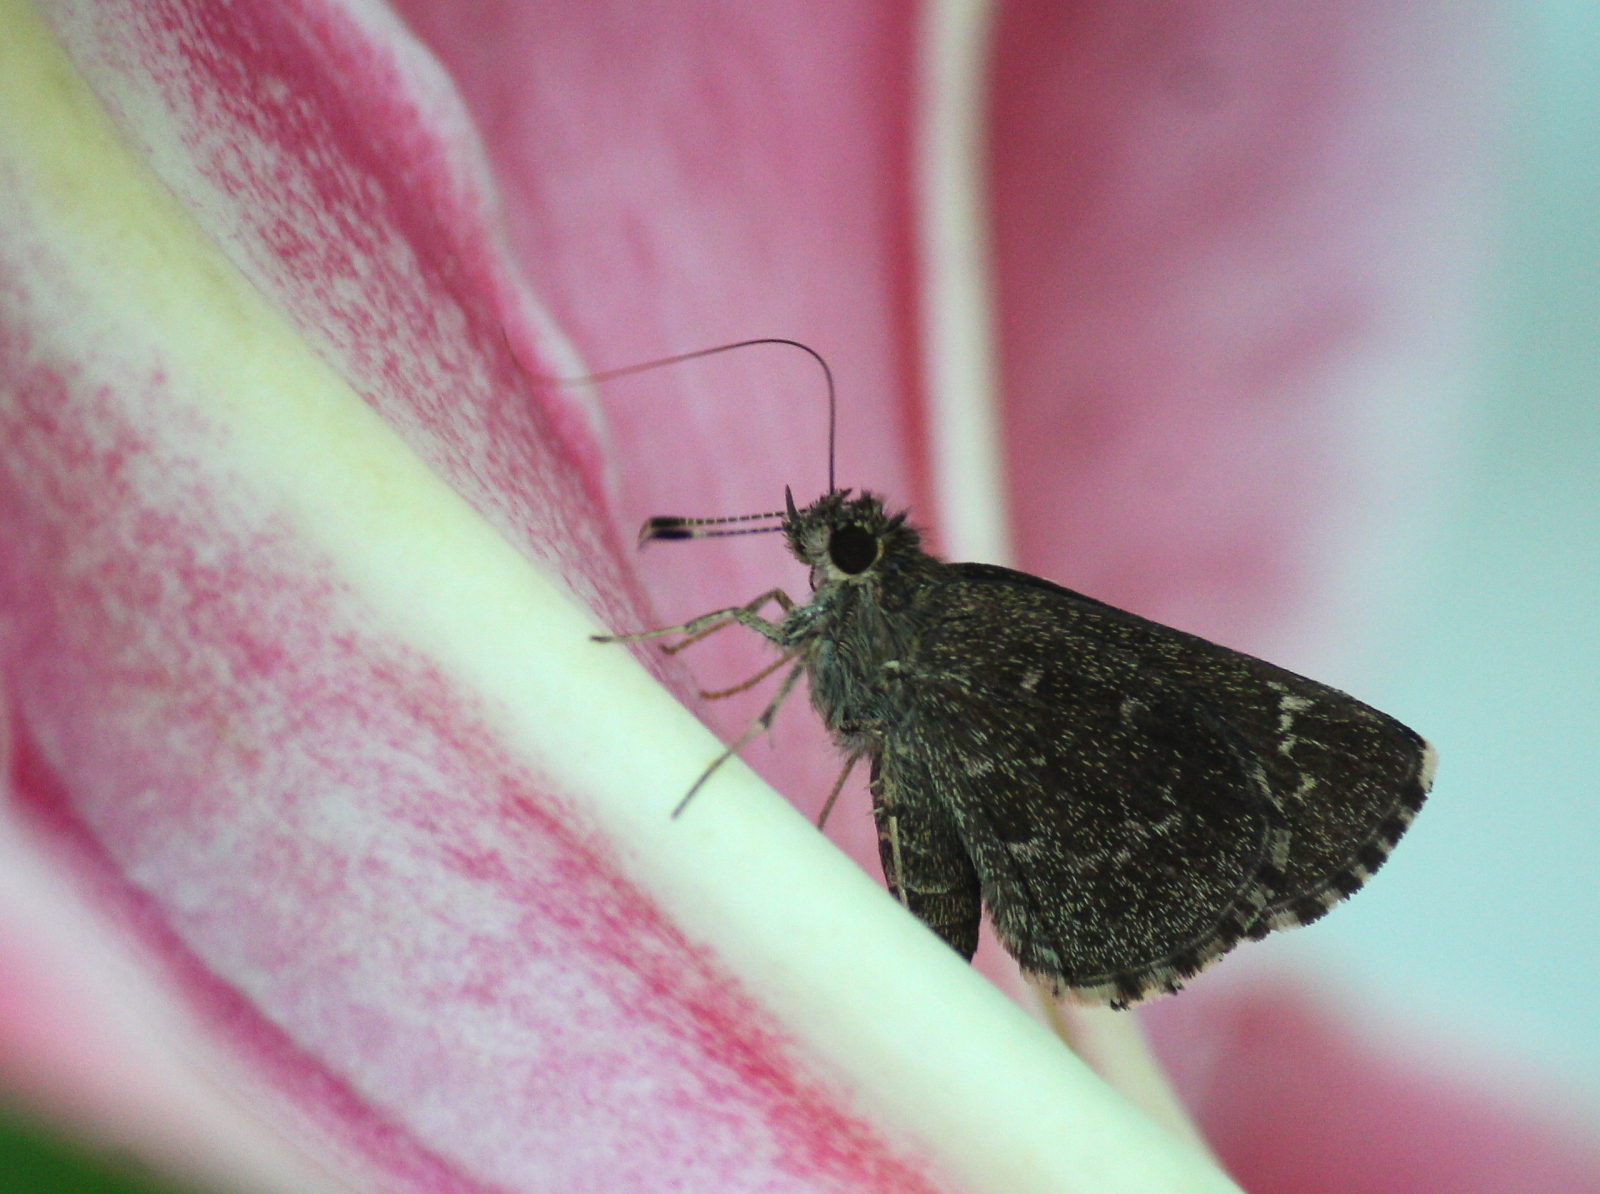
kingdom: Animalia
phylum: Arthropoda
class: Insecta
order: Lepidoptera
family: Hesperiidae
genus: Mastor
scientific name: Mastor celia
